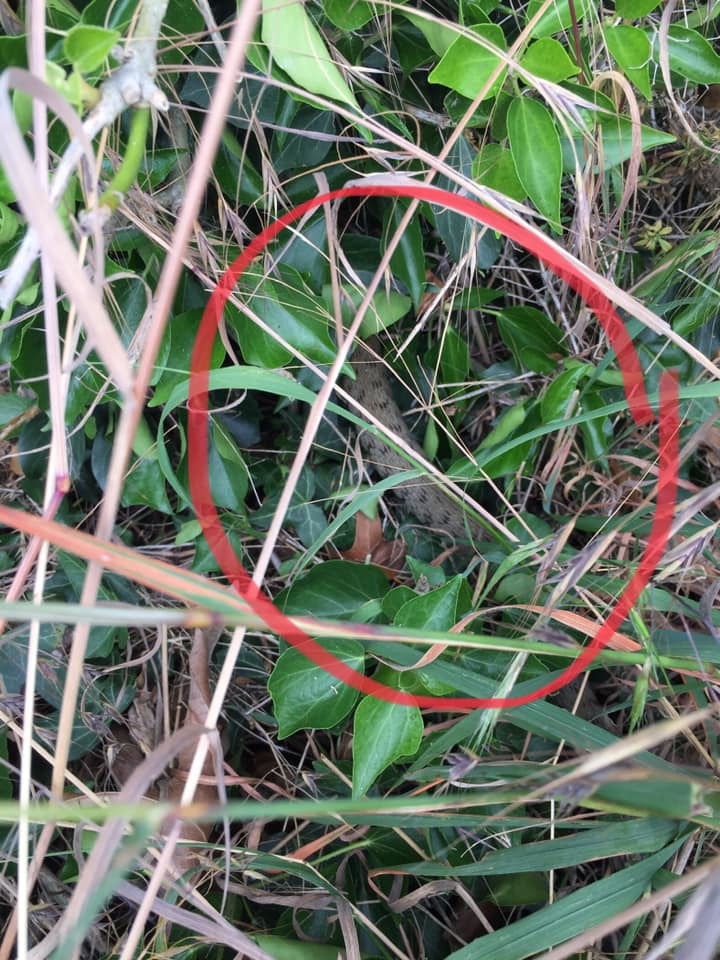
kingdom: Animalia
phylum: Chordata
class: Squamata
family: Colubridae
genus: Natrix
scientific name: Natrix helvetica
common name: Banded grass snake
